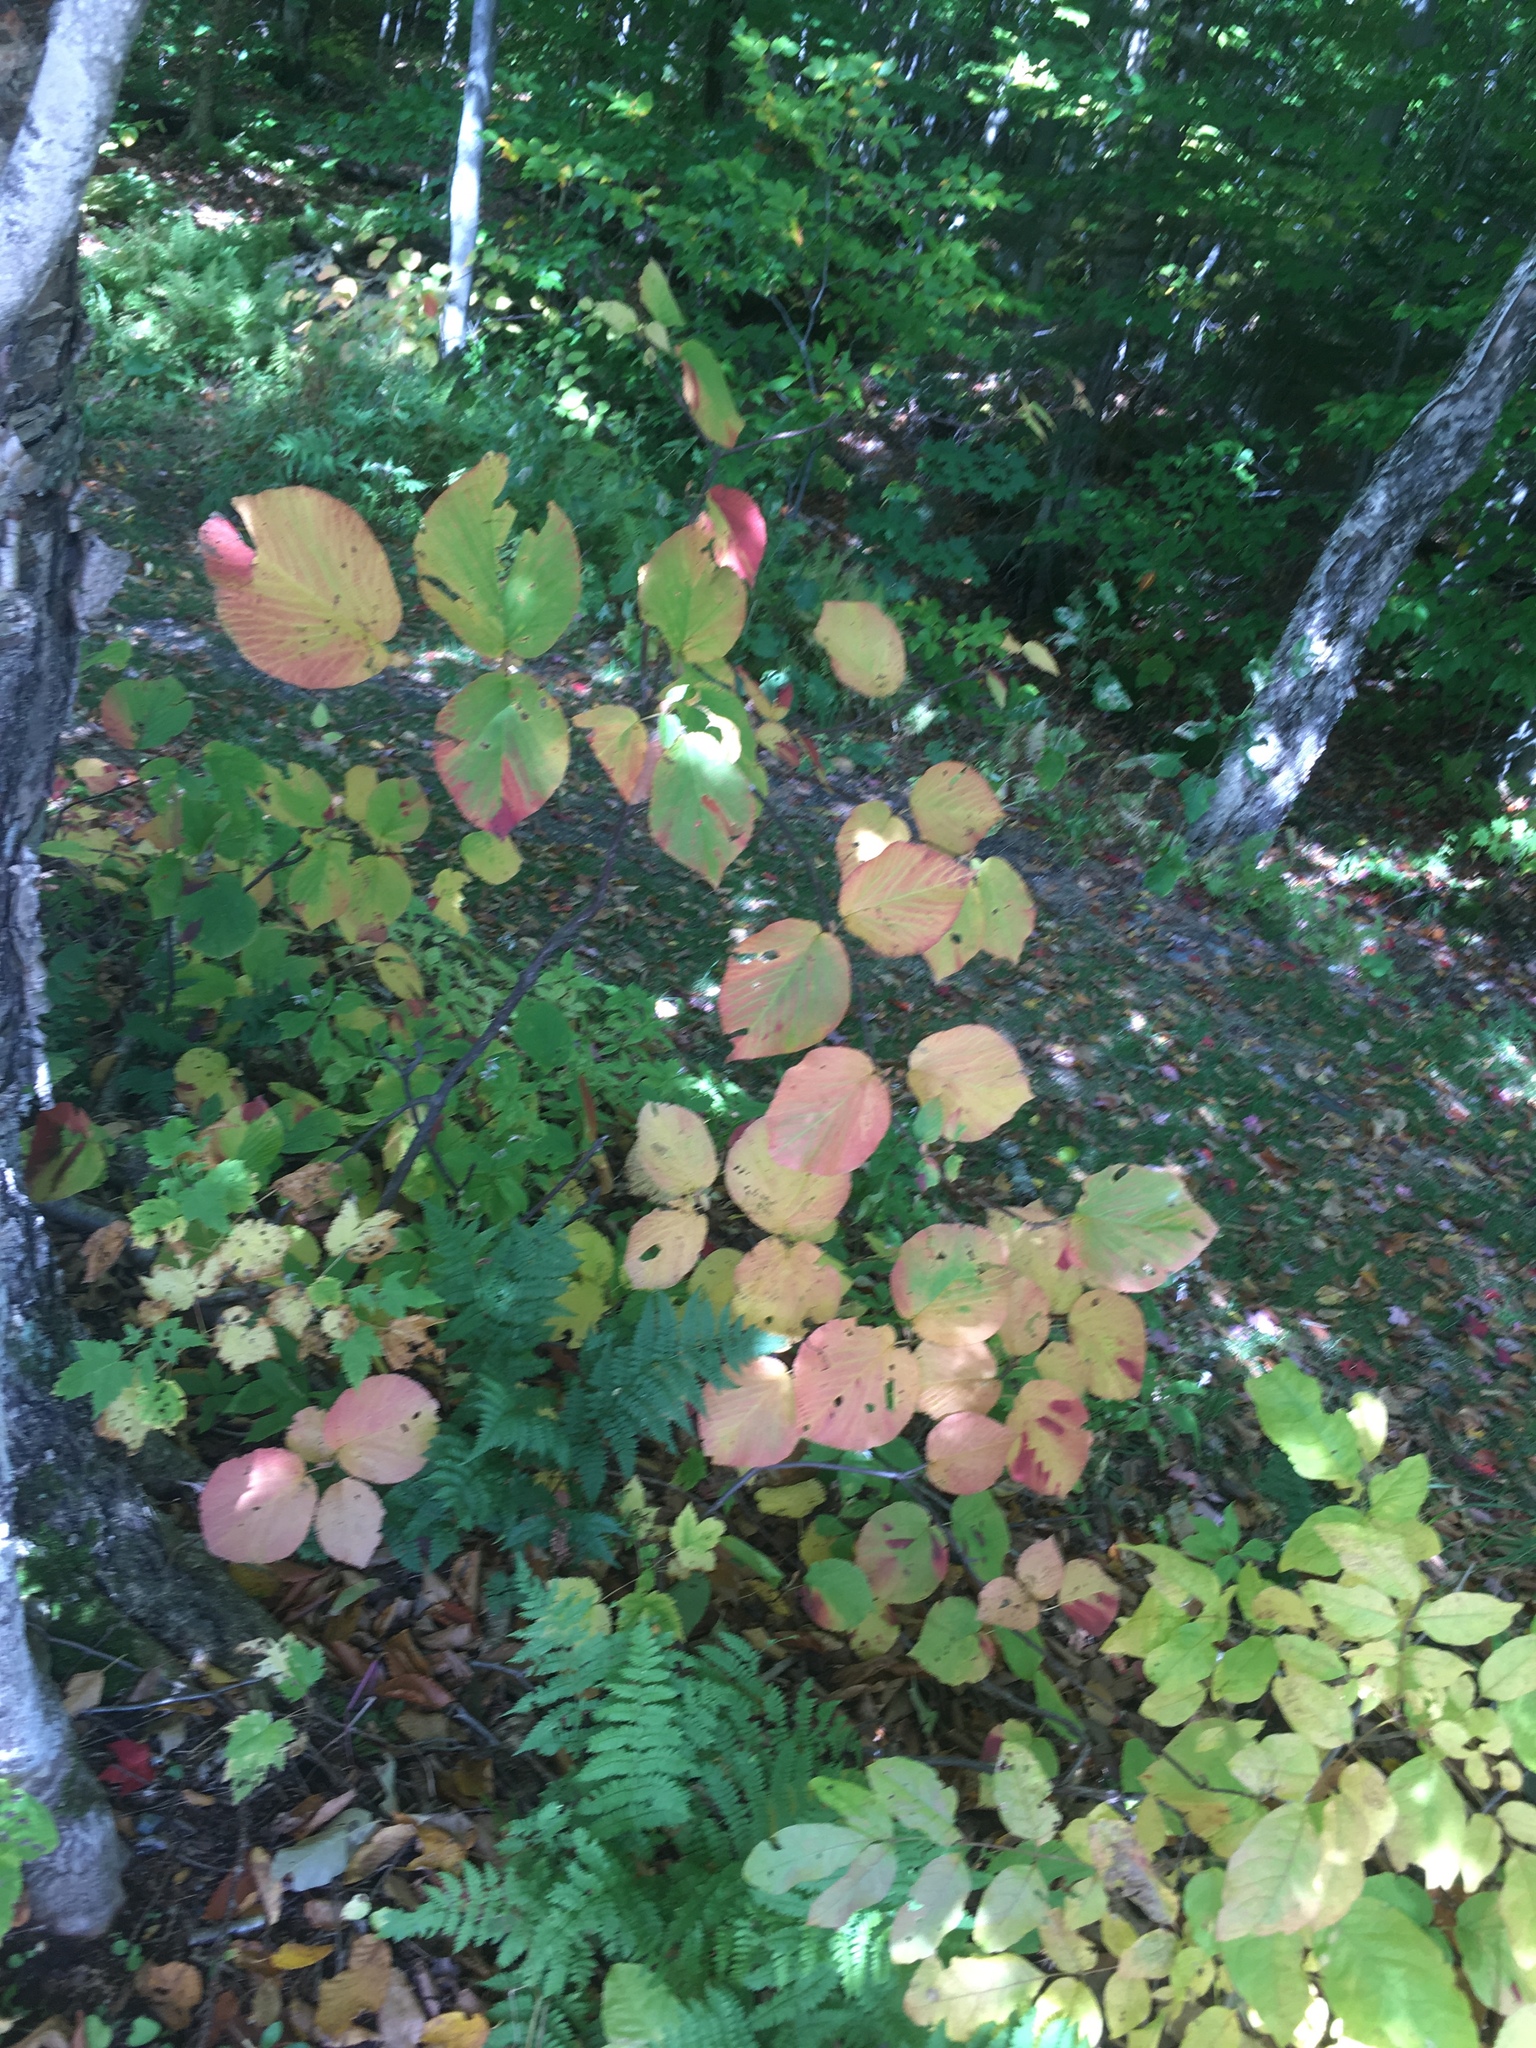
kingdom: Plantae
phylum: Tracheophyta
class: Magnoliopsida
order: Dipsacales
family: Viburnaceae
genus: Viburnum
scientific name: Viburnum lantanoides
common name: Hobblebush
